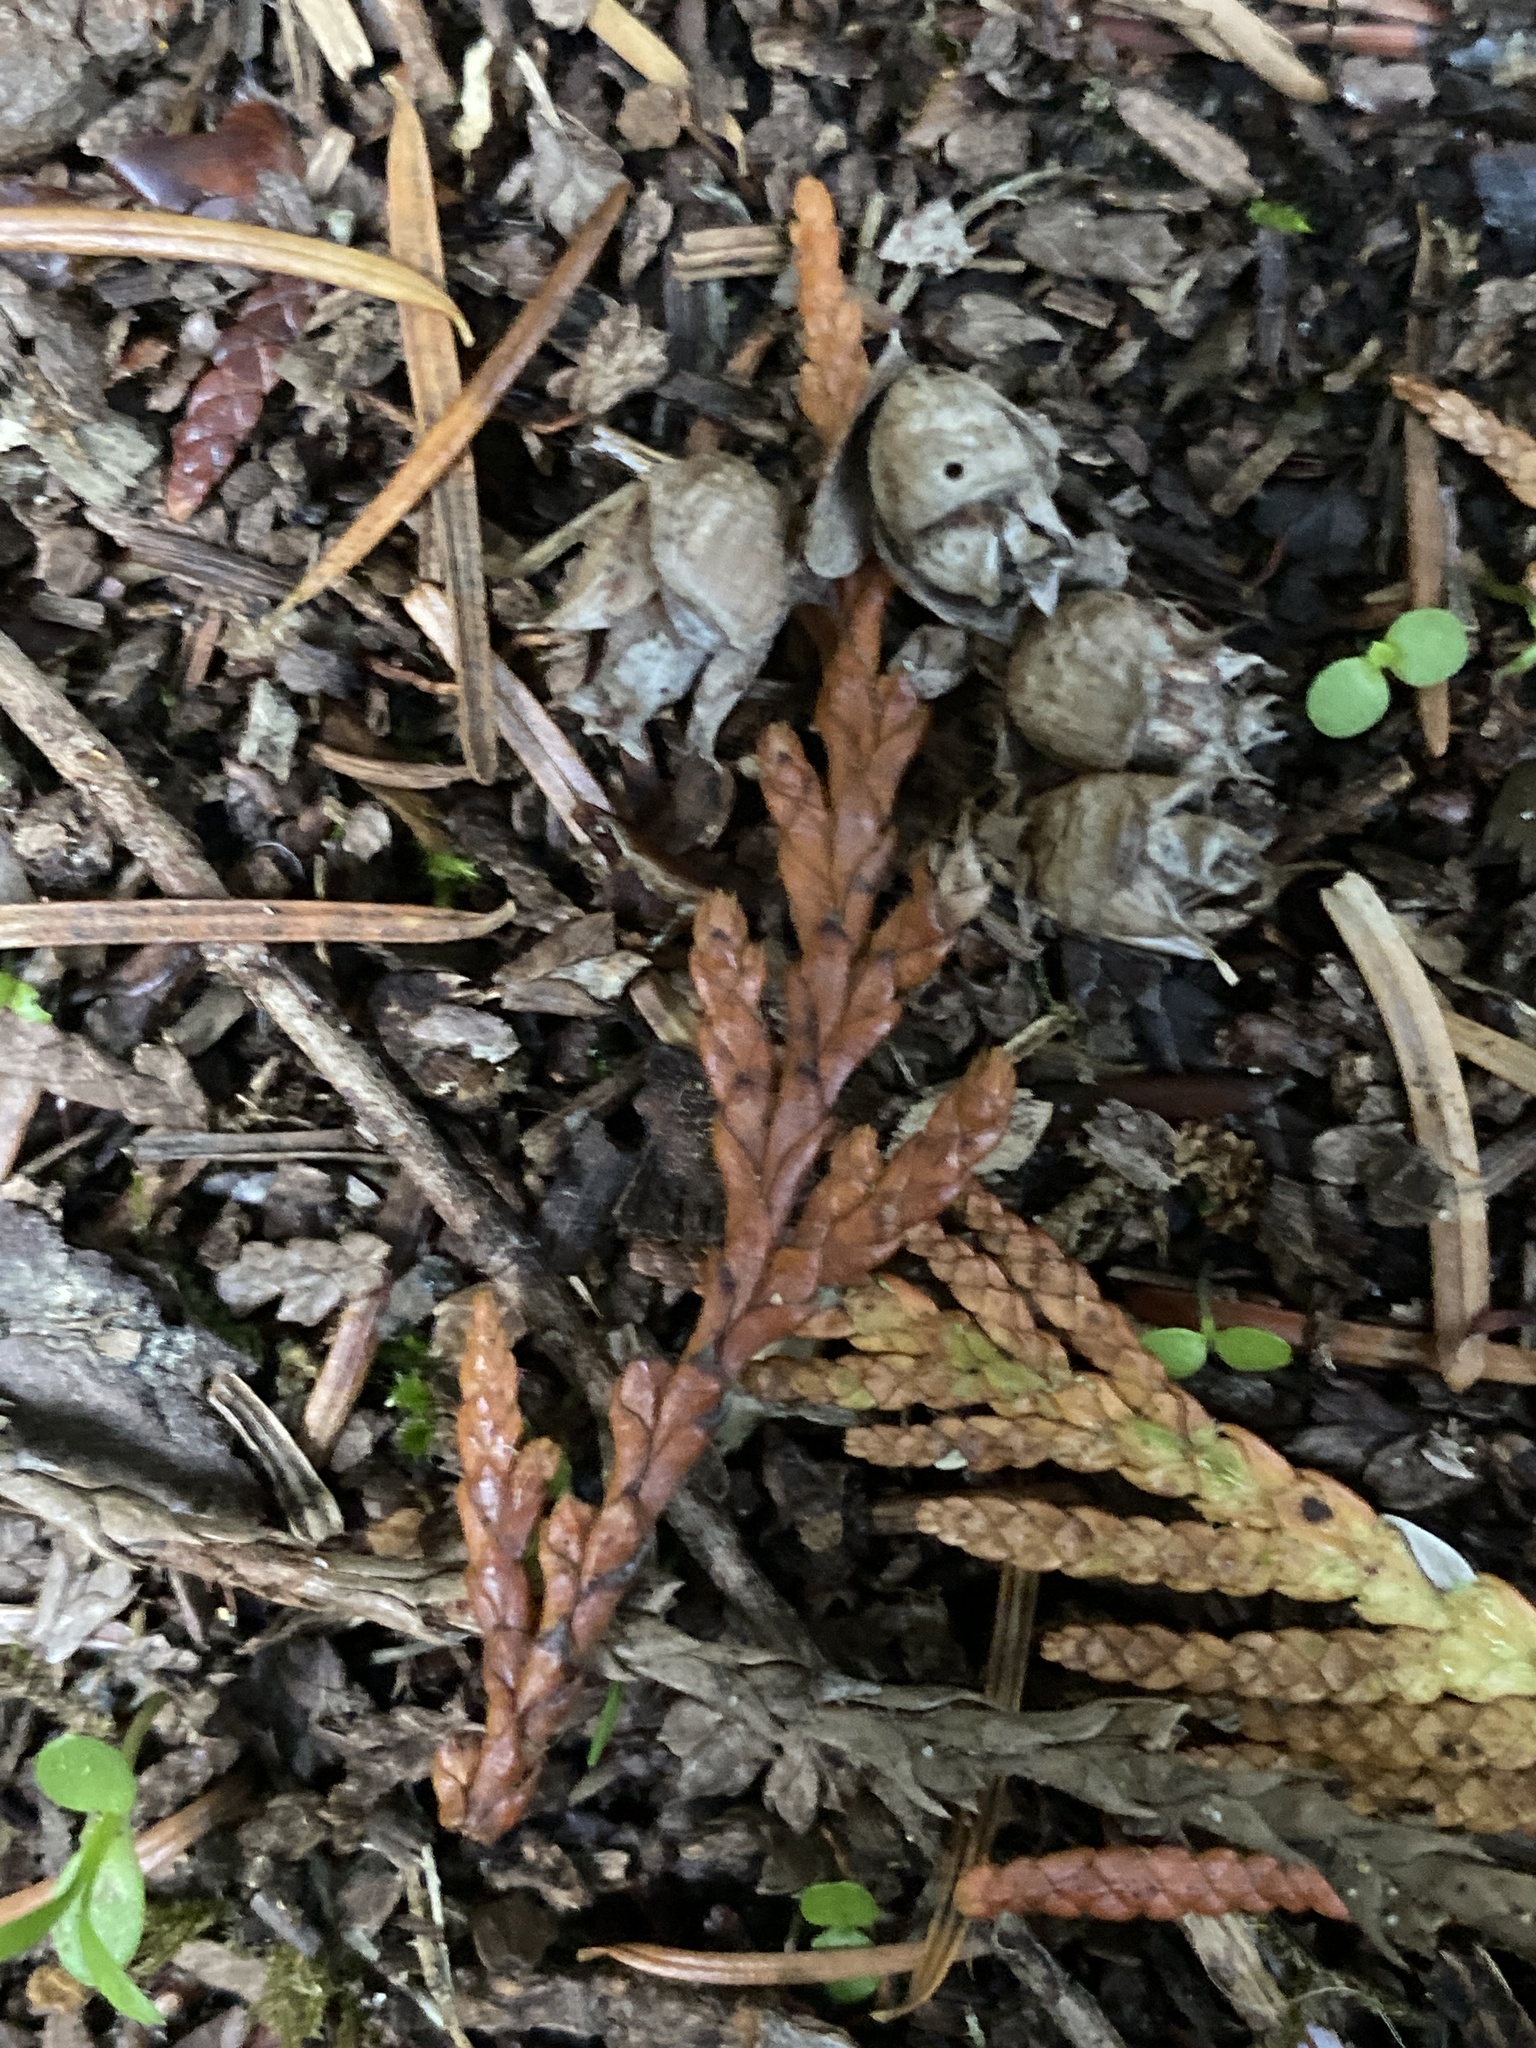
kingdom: Plantae
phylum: Tracheophyta
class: Pinopsida
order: Pinales
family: Cupressaceae
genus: Thuja
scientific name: Thuja plicata
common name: Western red-cedar
